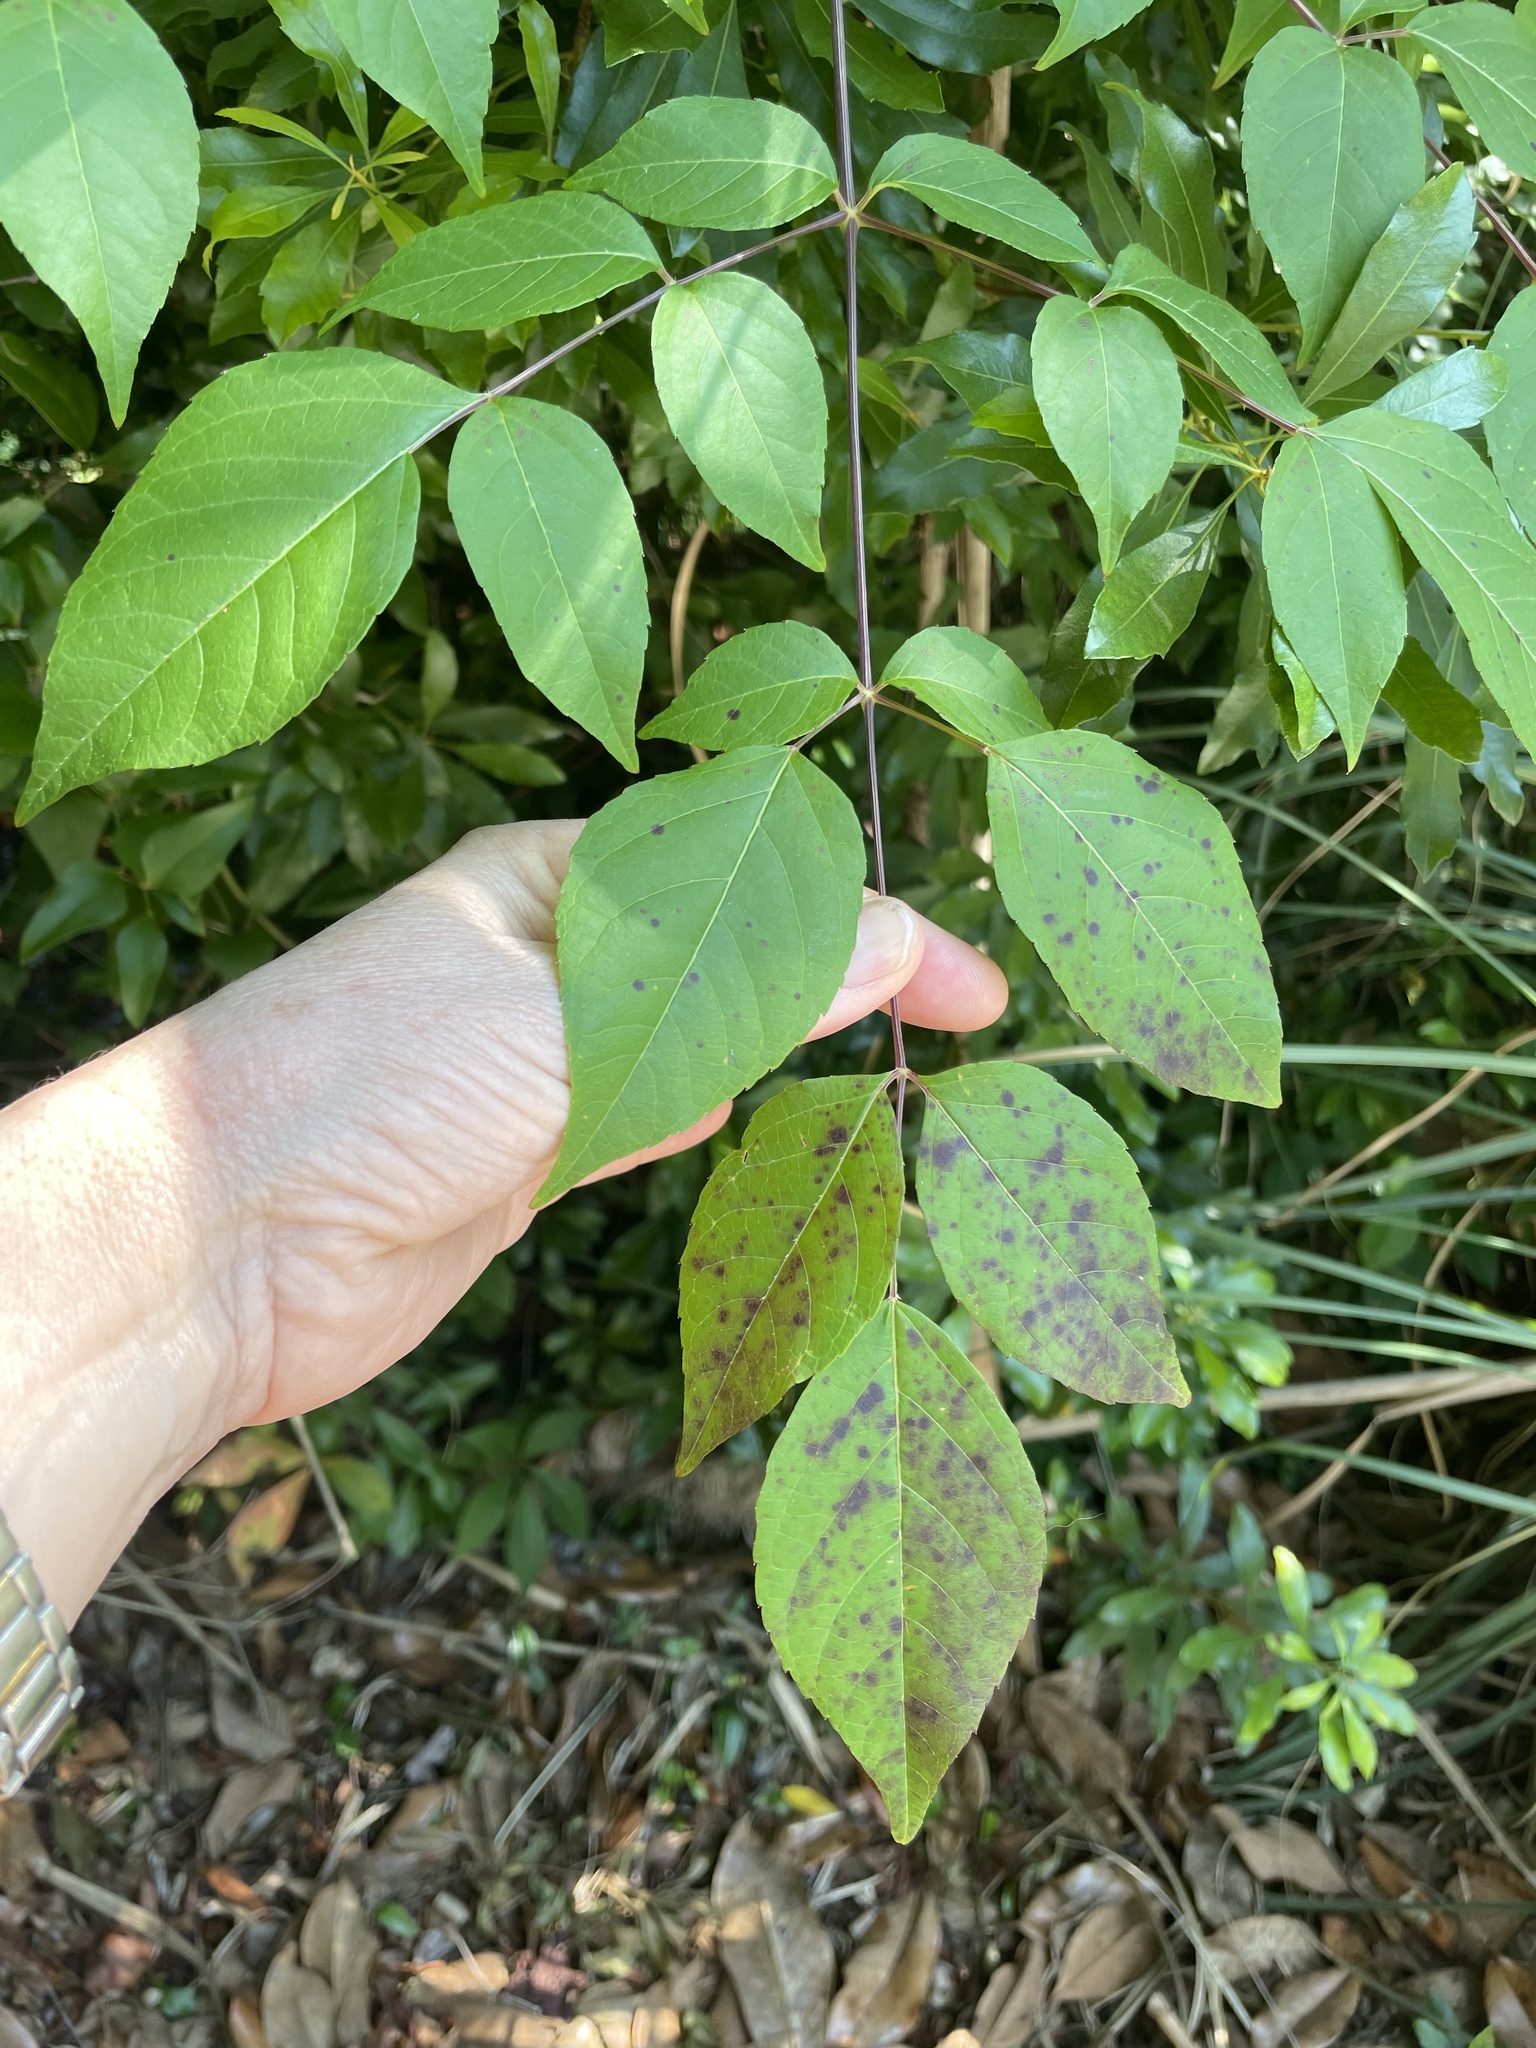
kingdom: Plantae
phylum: Tracheophyta
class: Magnoliopsida
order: Apiales
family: Araliaceae
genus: Aralia
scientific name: Aralia spinosa
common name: Hercules'-club
